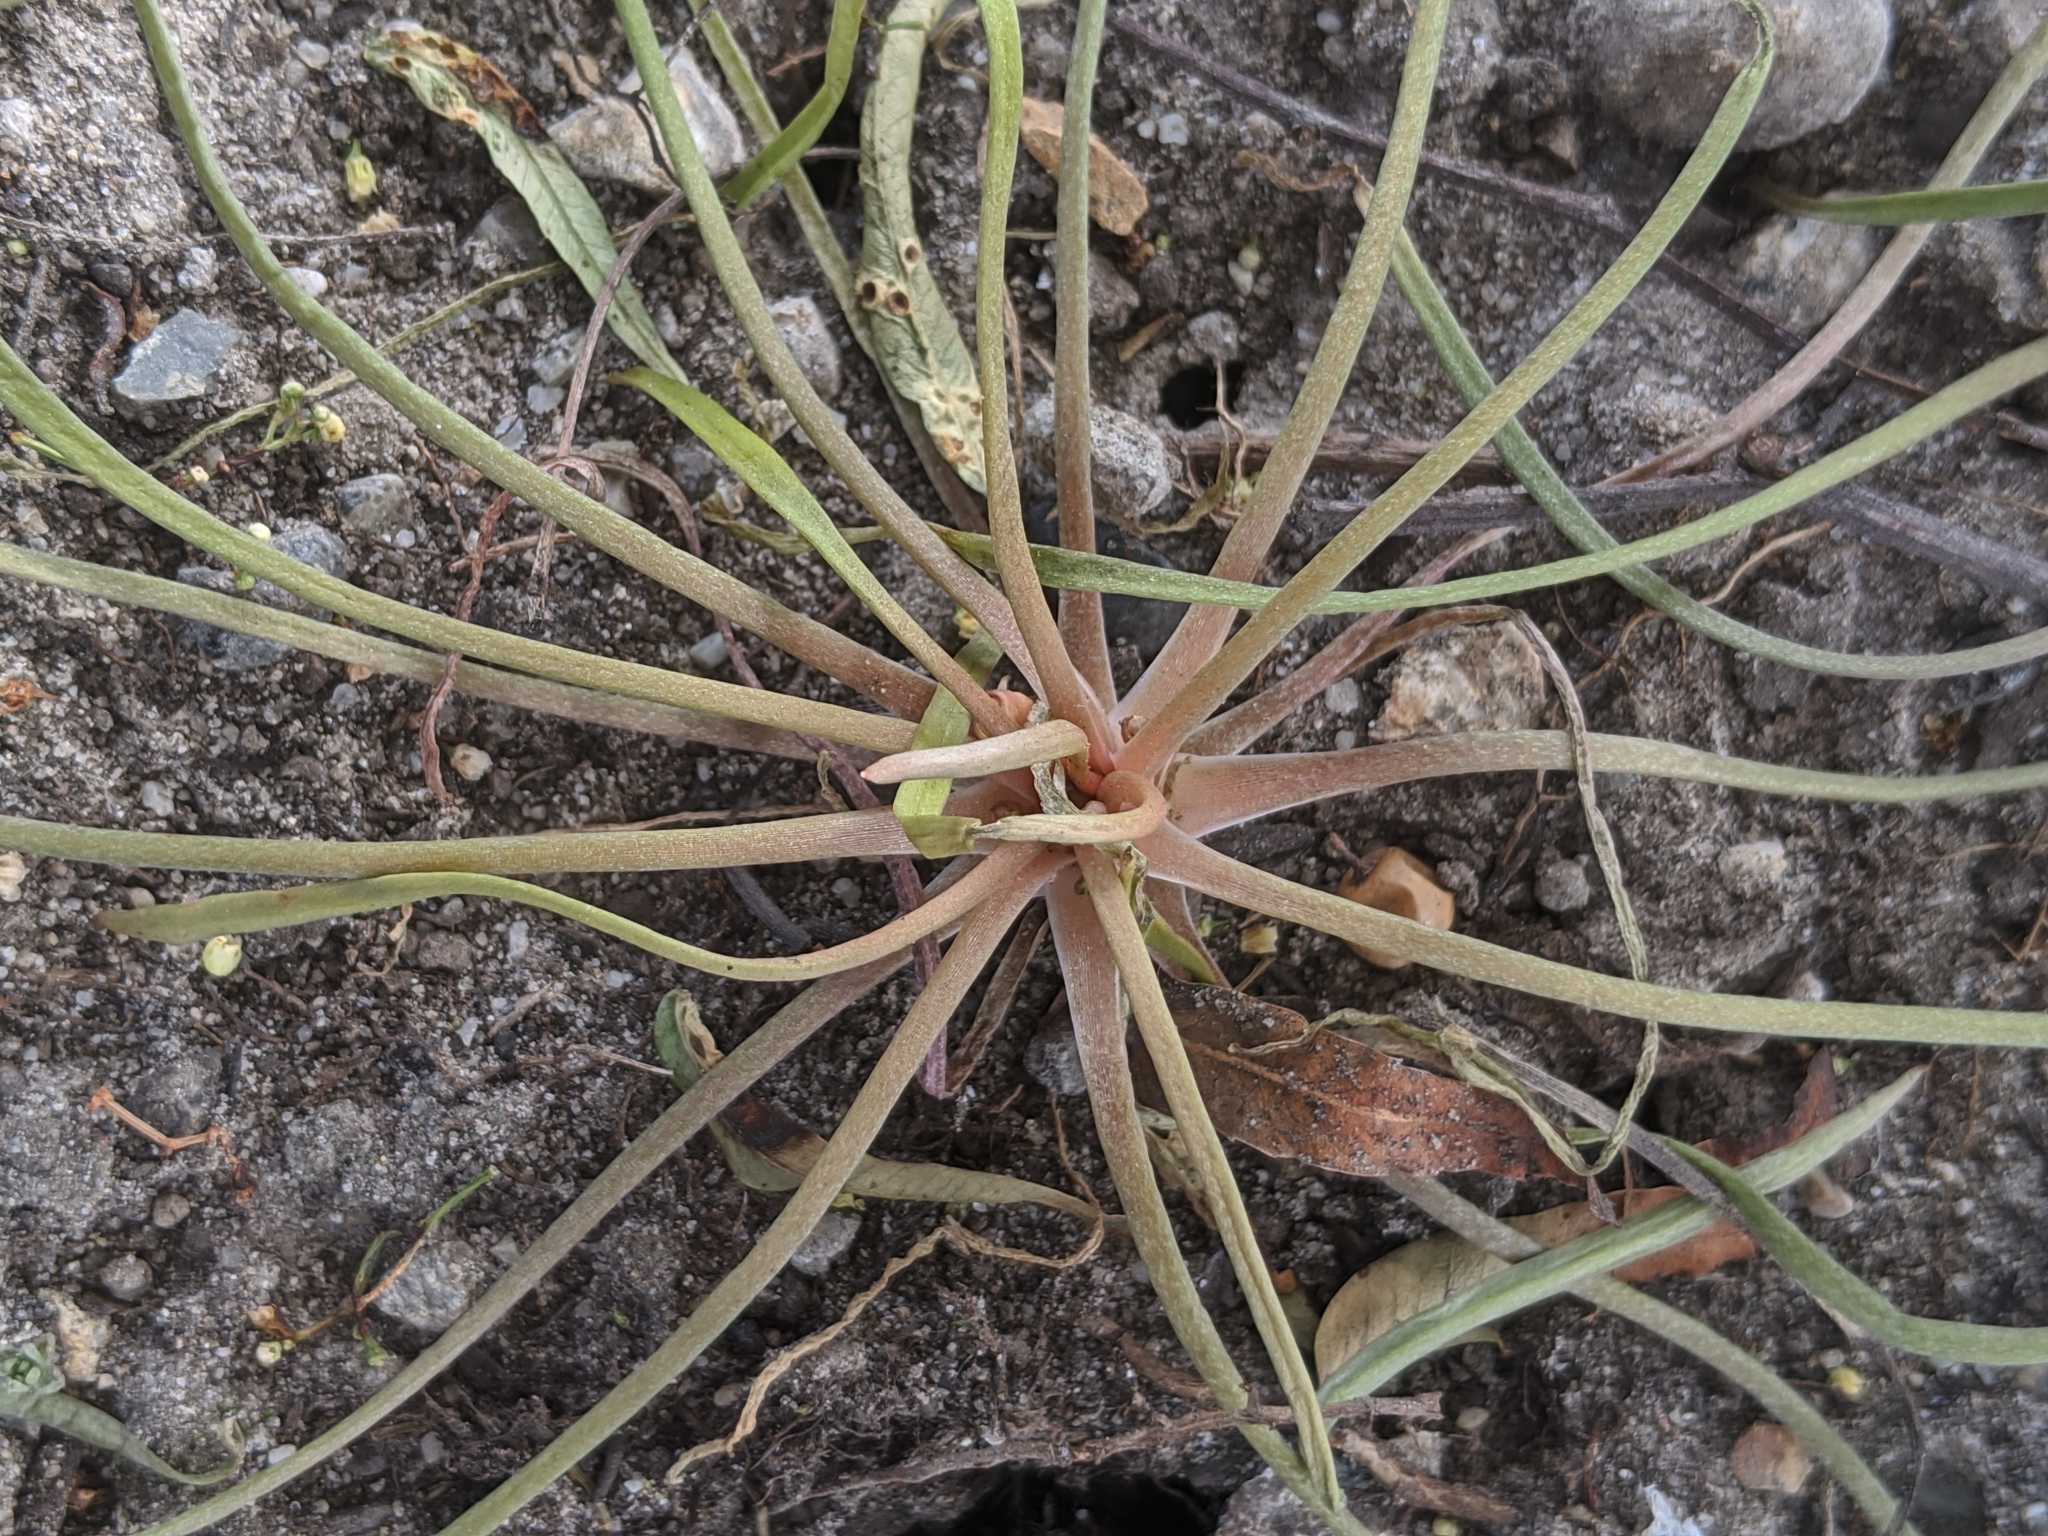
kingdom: Plantae
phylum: Tracheophyta
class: Magnoliopsida
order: Caryophyllales
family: Montiaceae
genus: Claytonia
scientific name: Claytonia parviflora
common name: Indian-lettuce
